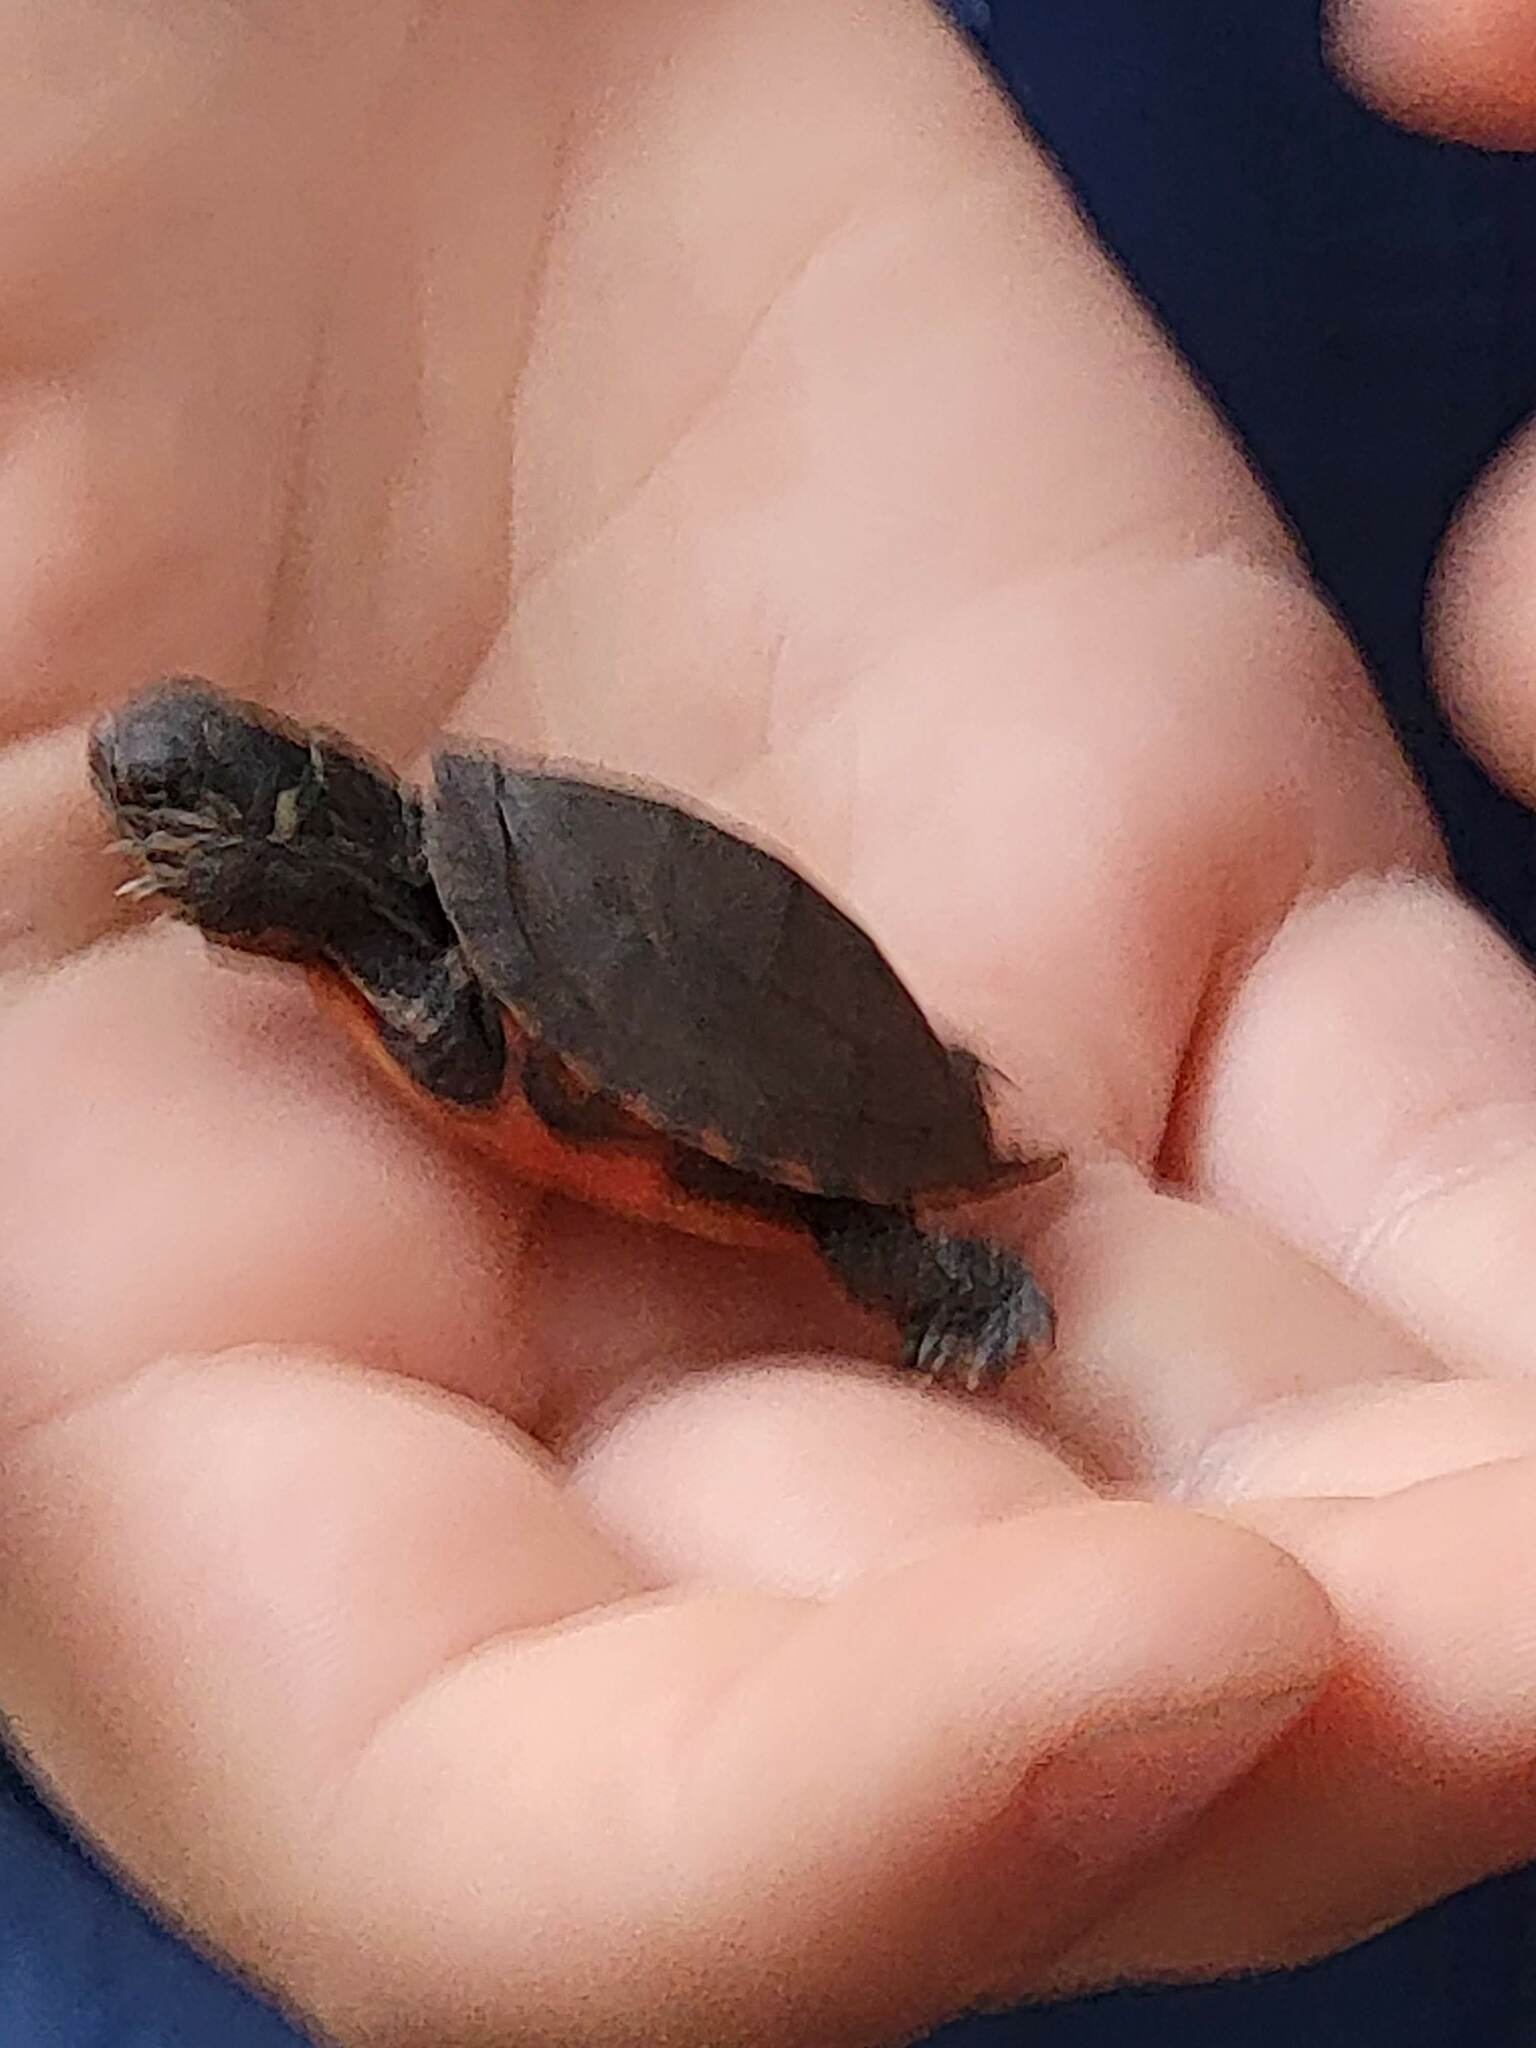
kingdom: Animalia
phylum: Chordata
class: Testudines
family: Emydidae
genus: Chrysemys
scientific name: Chrysemys picta
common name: Painted turtle
